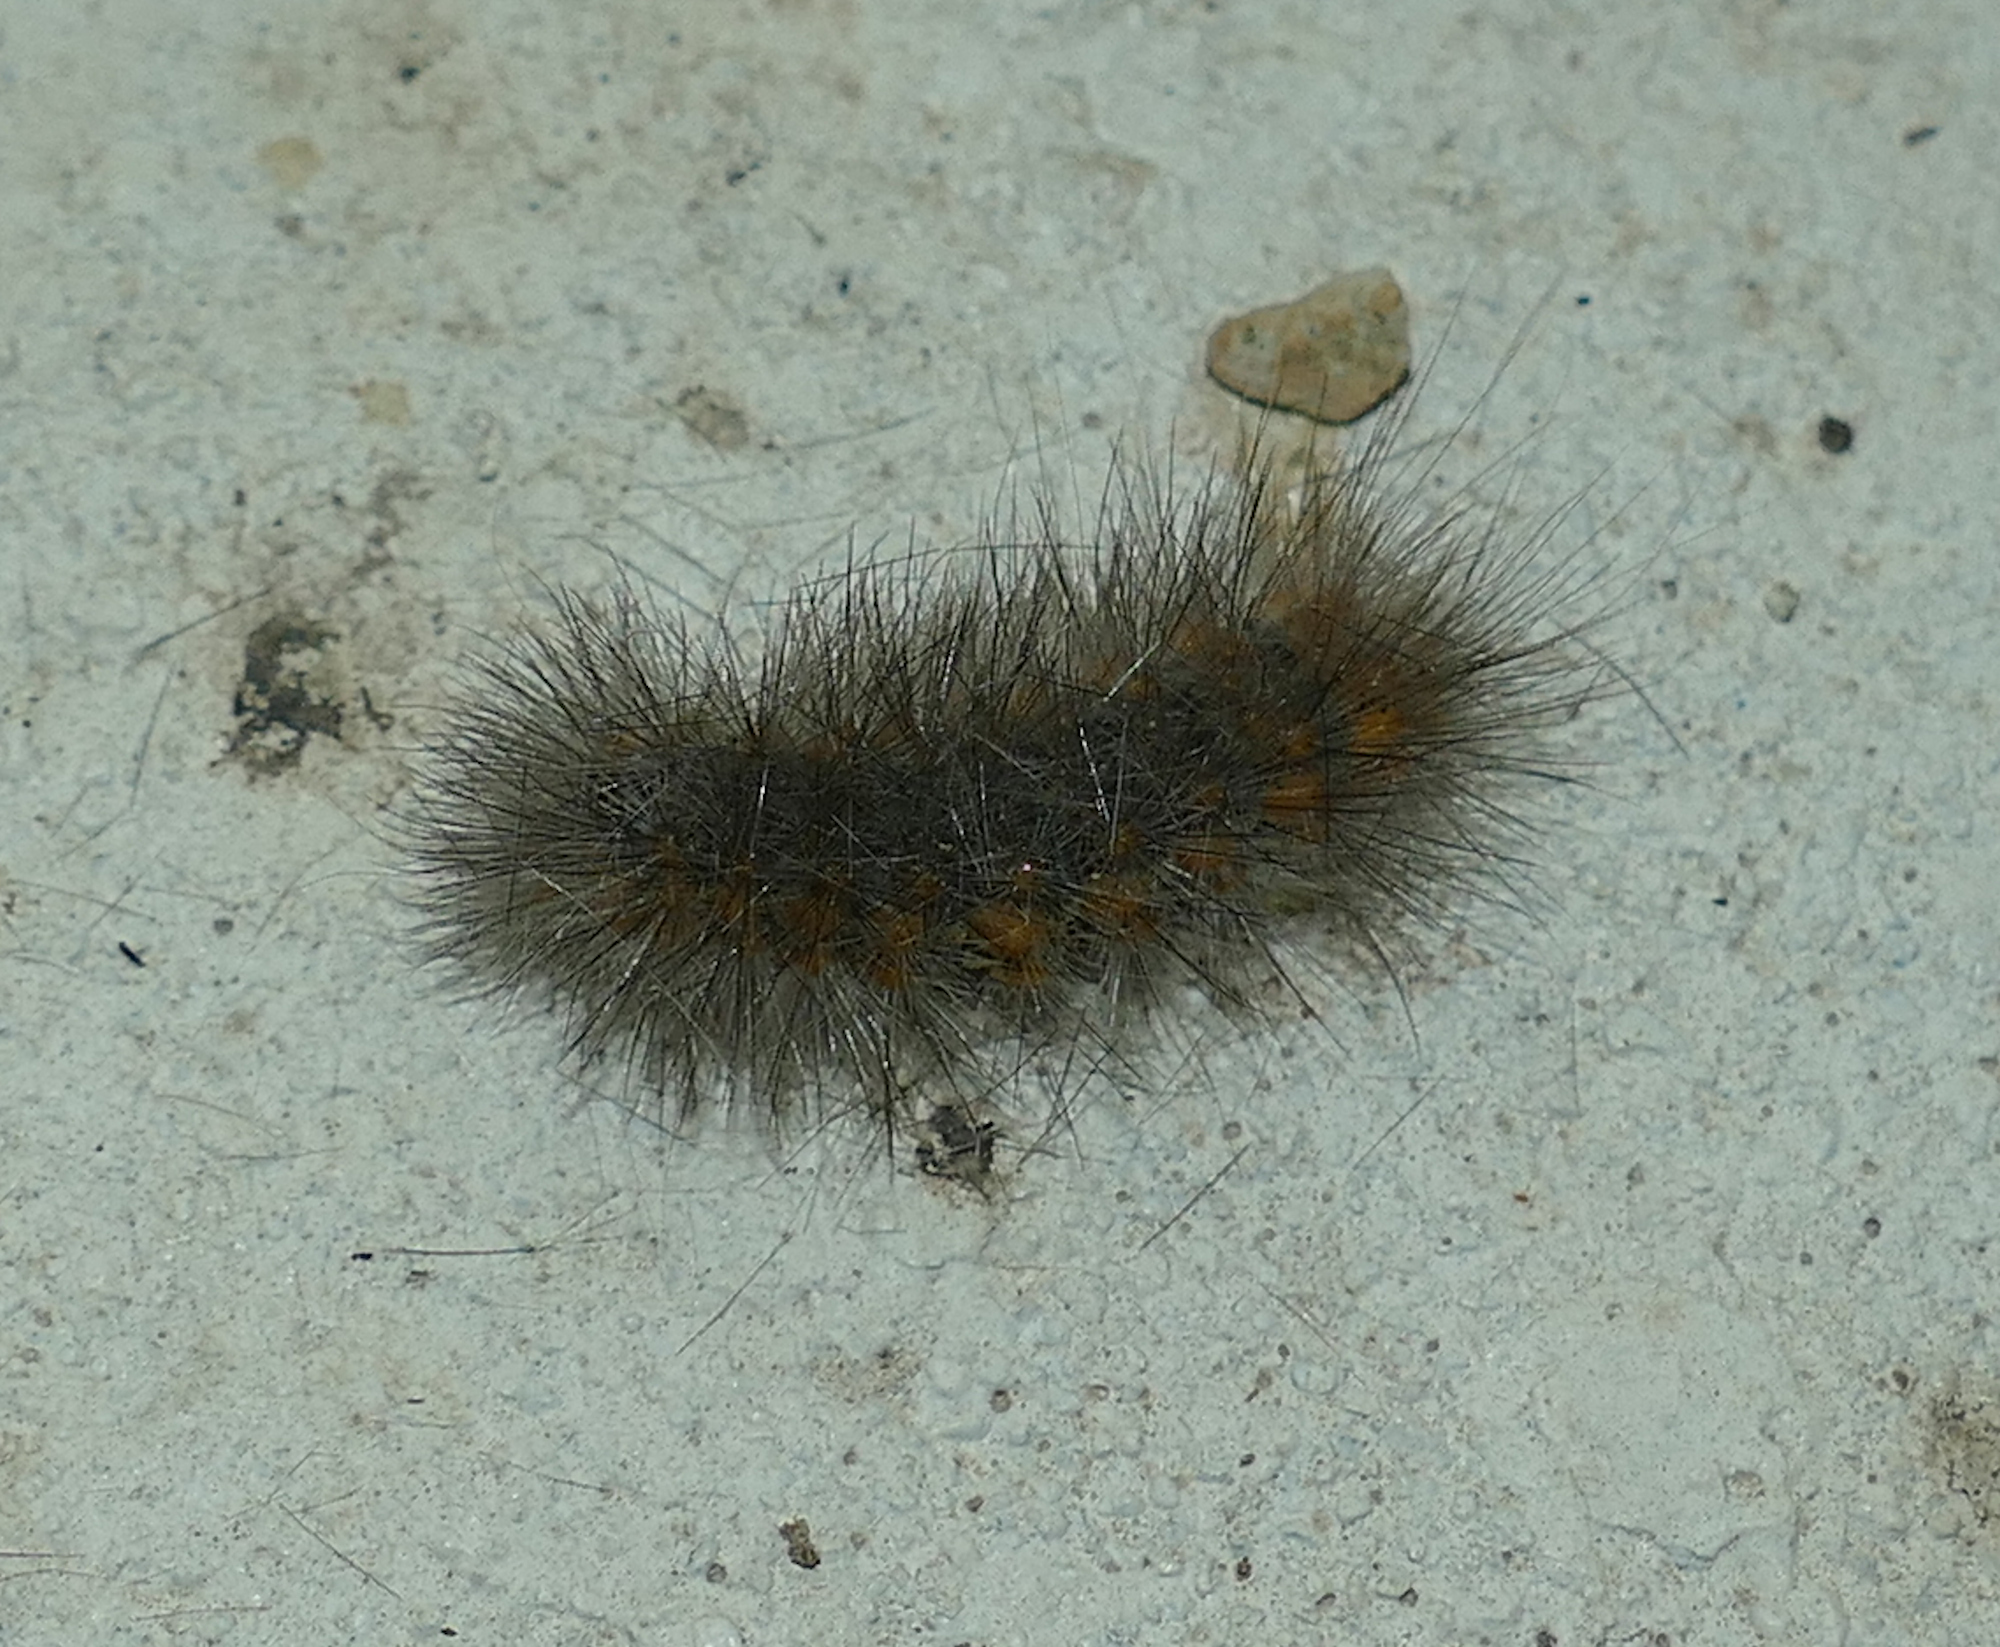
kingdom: Animalia
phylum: Arthropoda
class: Insecta
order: Lepidoptera
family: Erebidae
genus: Estigmene
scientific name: Estigmene acrea
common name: Salt marsh moth
